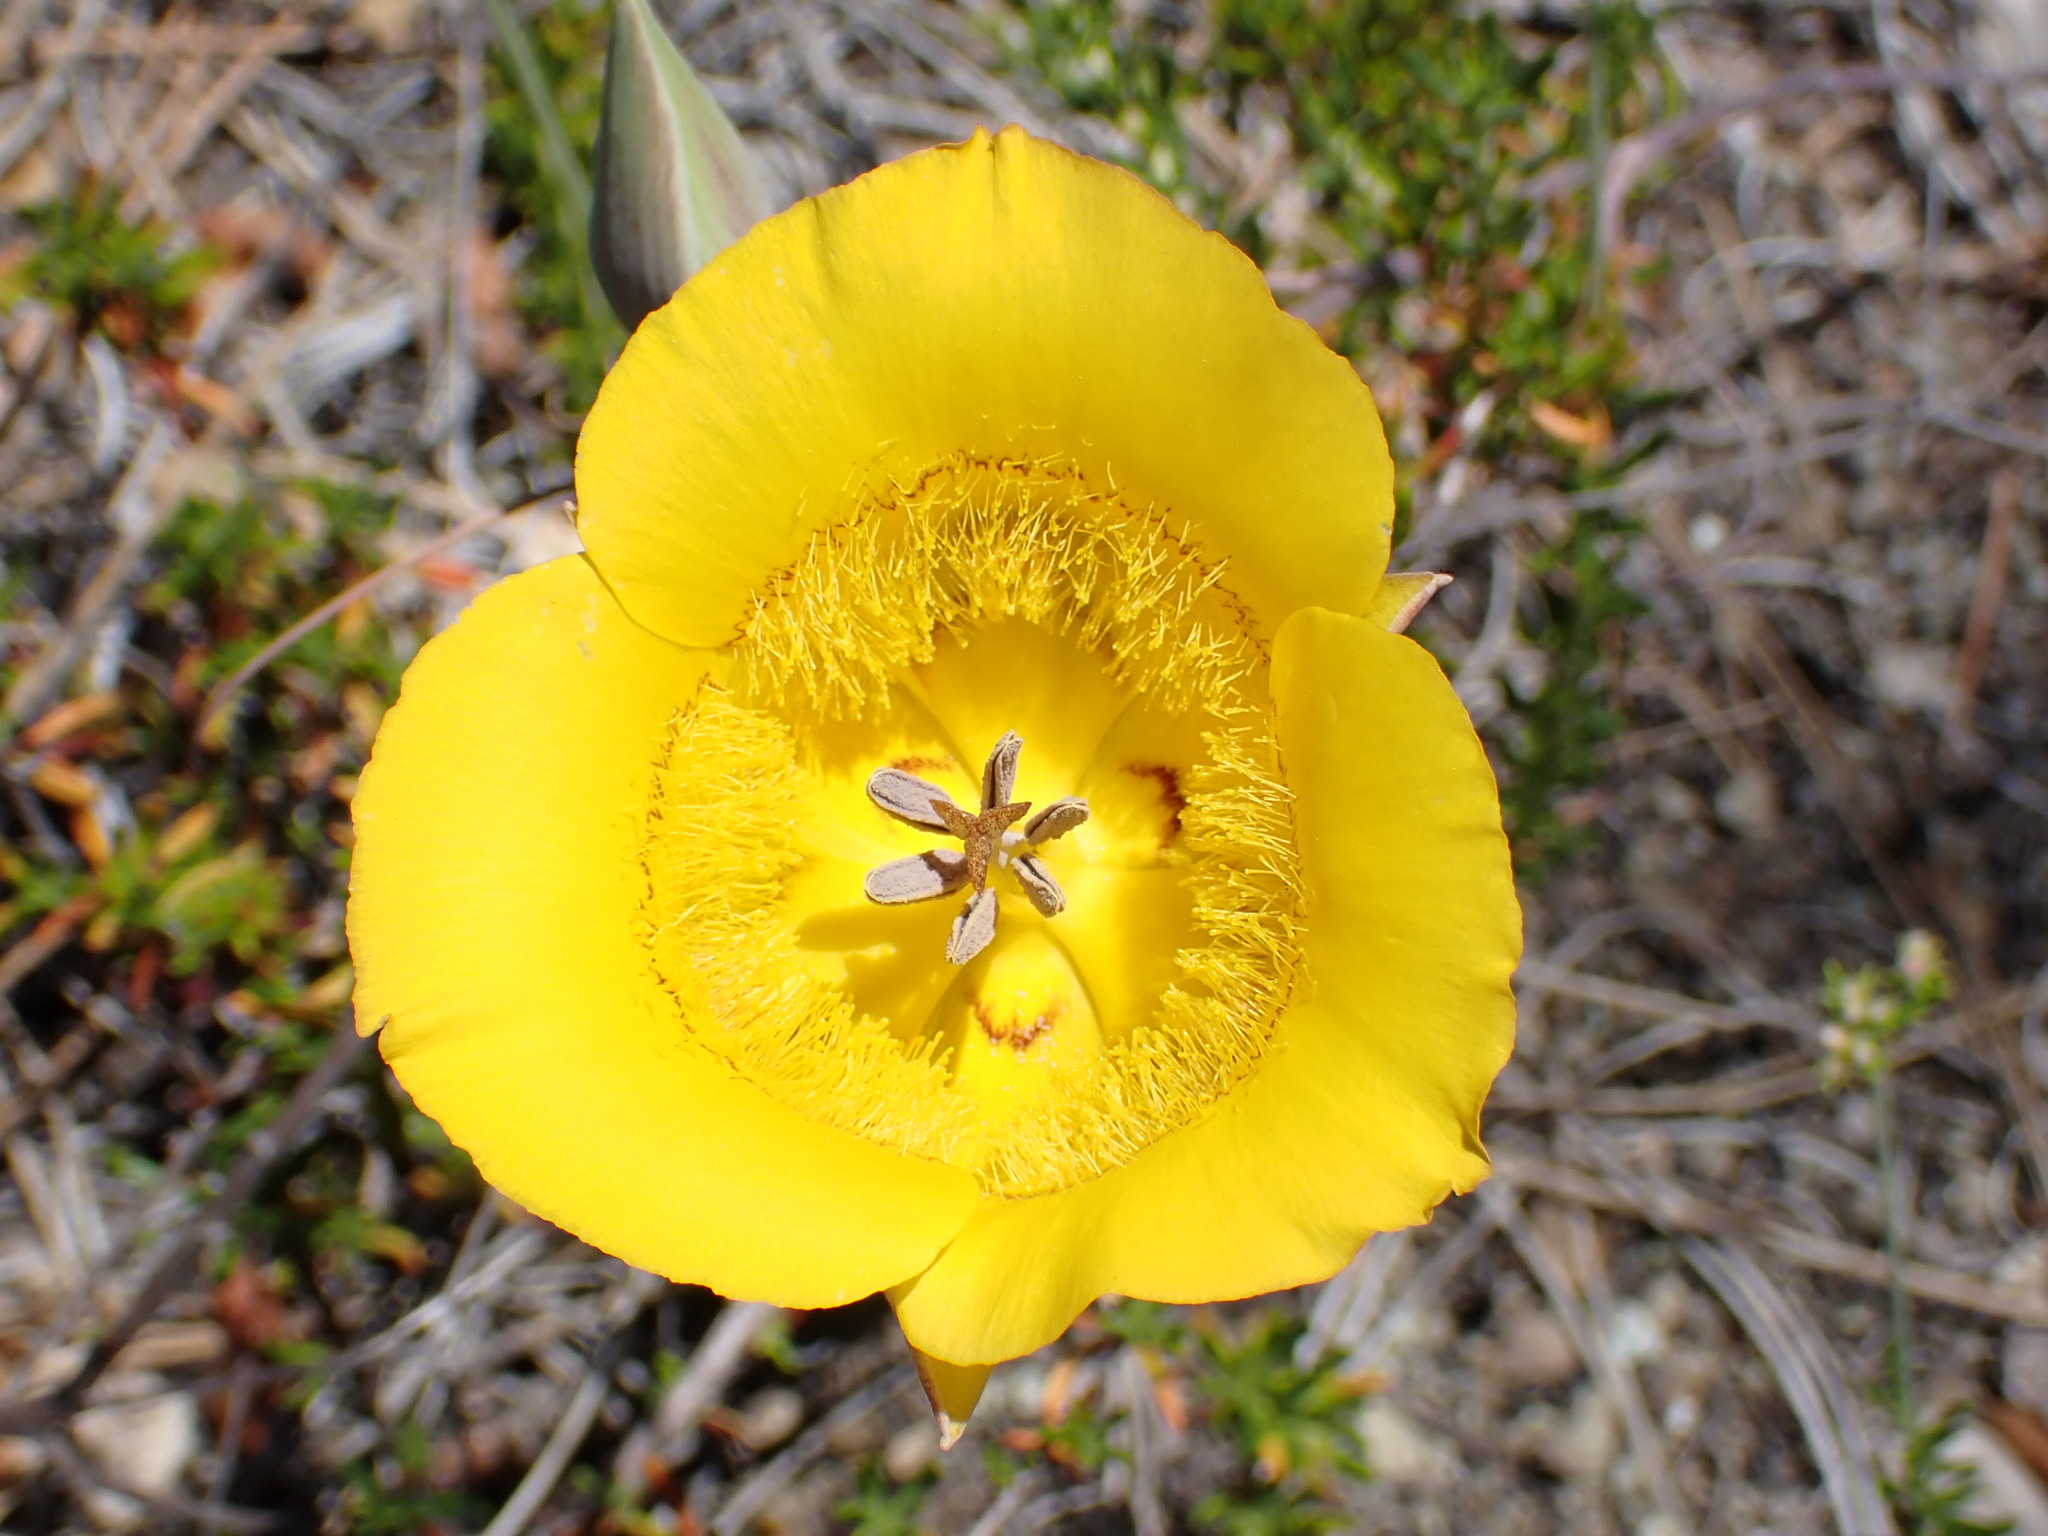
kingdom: Plantae
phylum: Tracheophyta
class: Liliopsida
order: Liliales
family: Liliaceae
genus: Calochortus
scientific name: Calochortus clavatus
